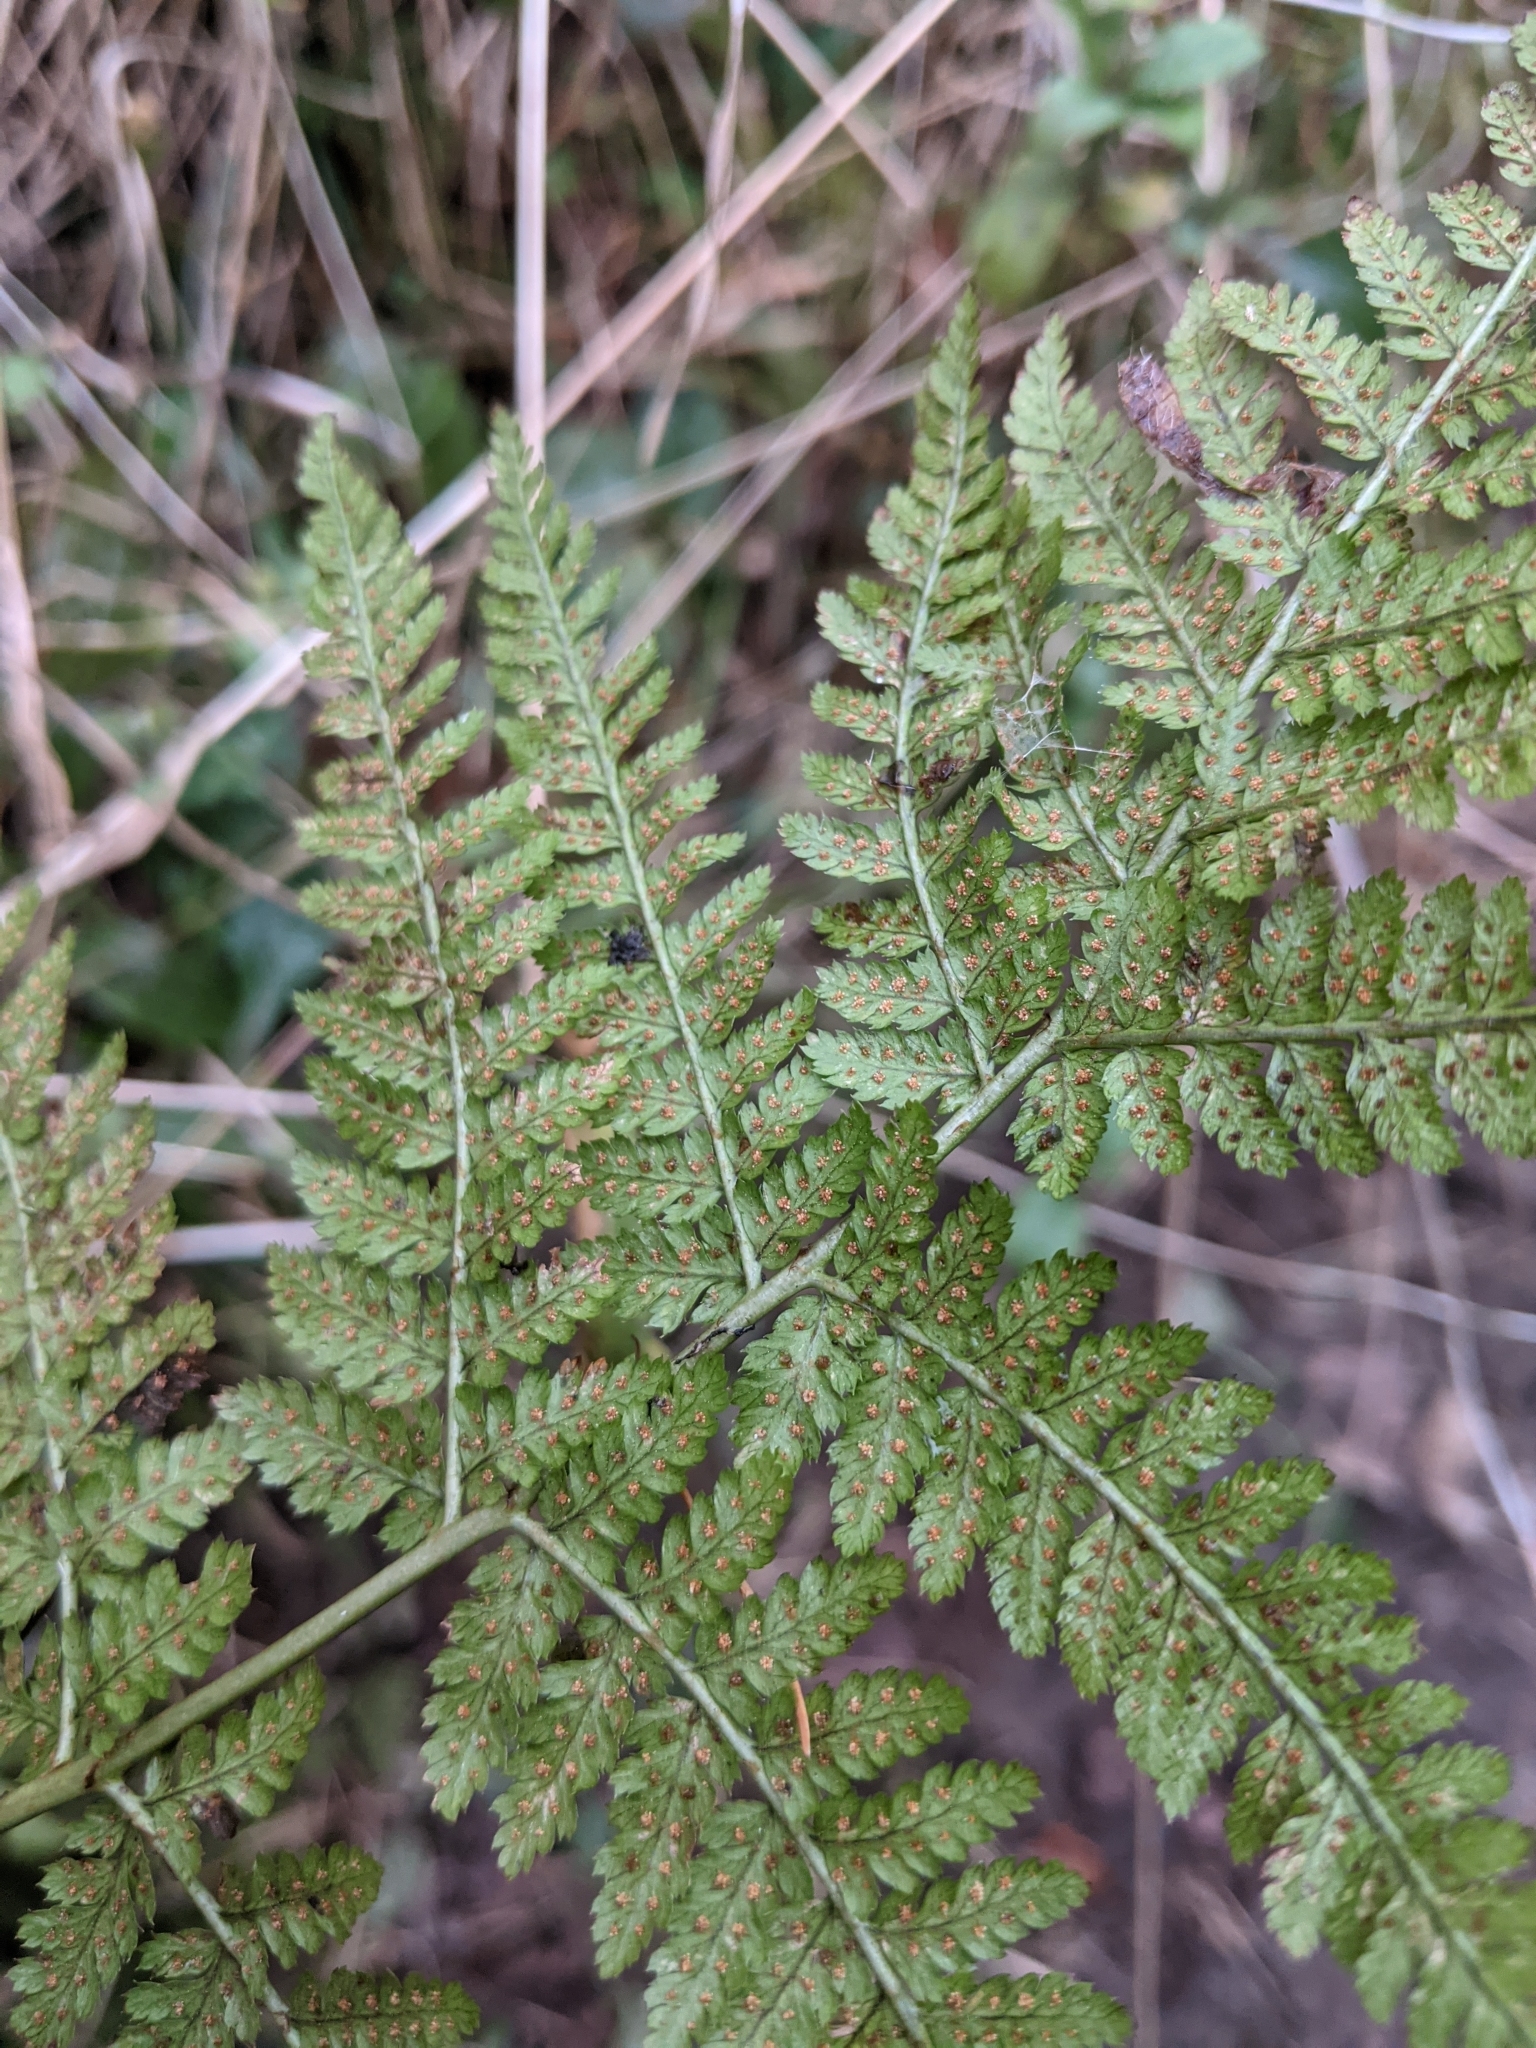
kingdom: Plantae
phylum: Tracheophyta
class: Polypodiopsida
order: Polypodiales
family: Dryopteridaceae
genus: Dryopteris
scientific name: Dryopteris dilatata
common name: Broad buckler-fern
